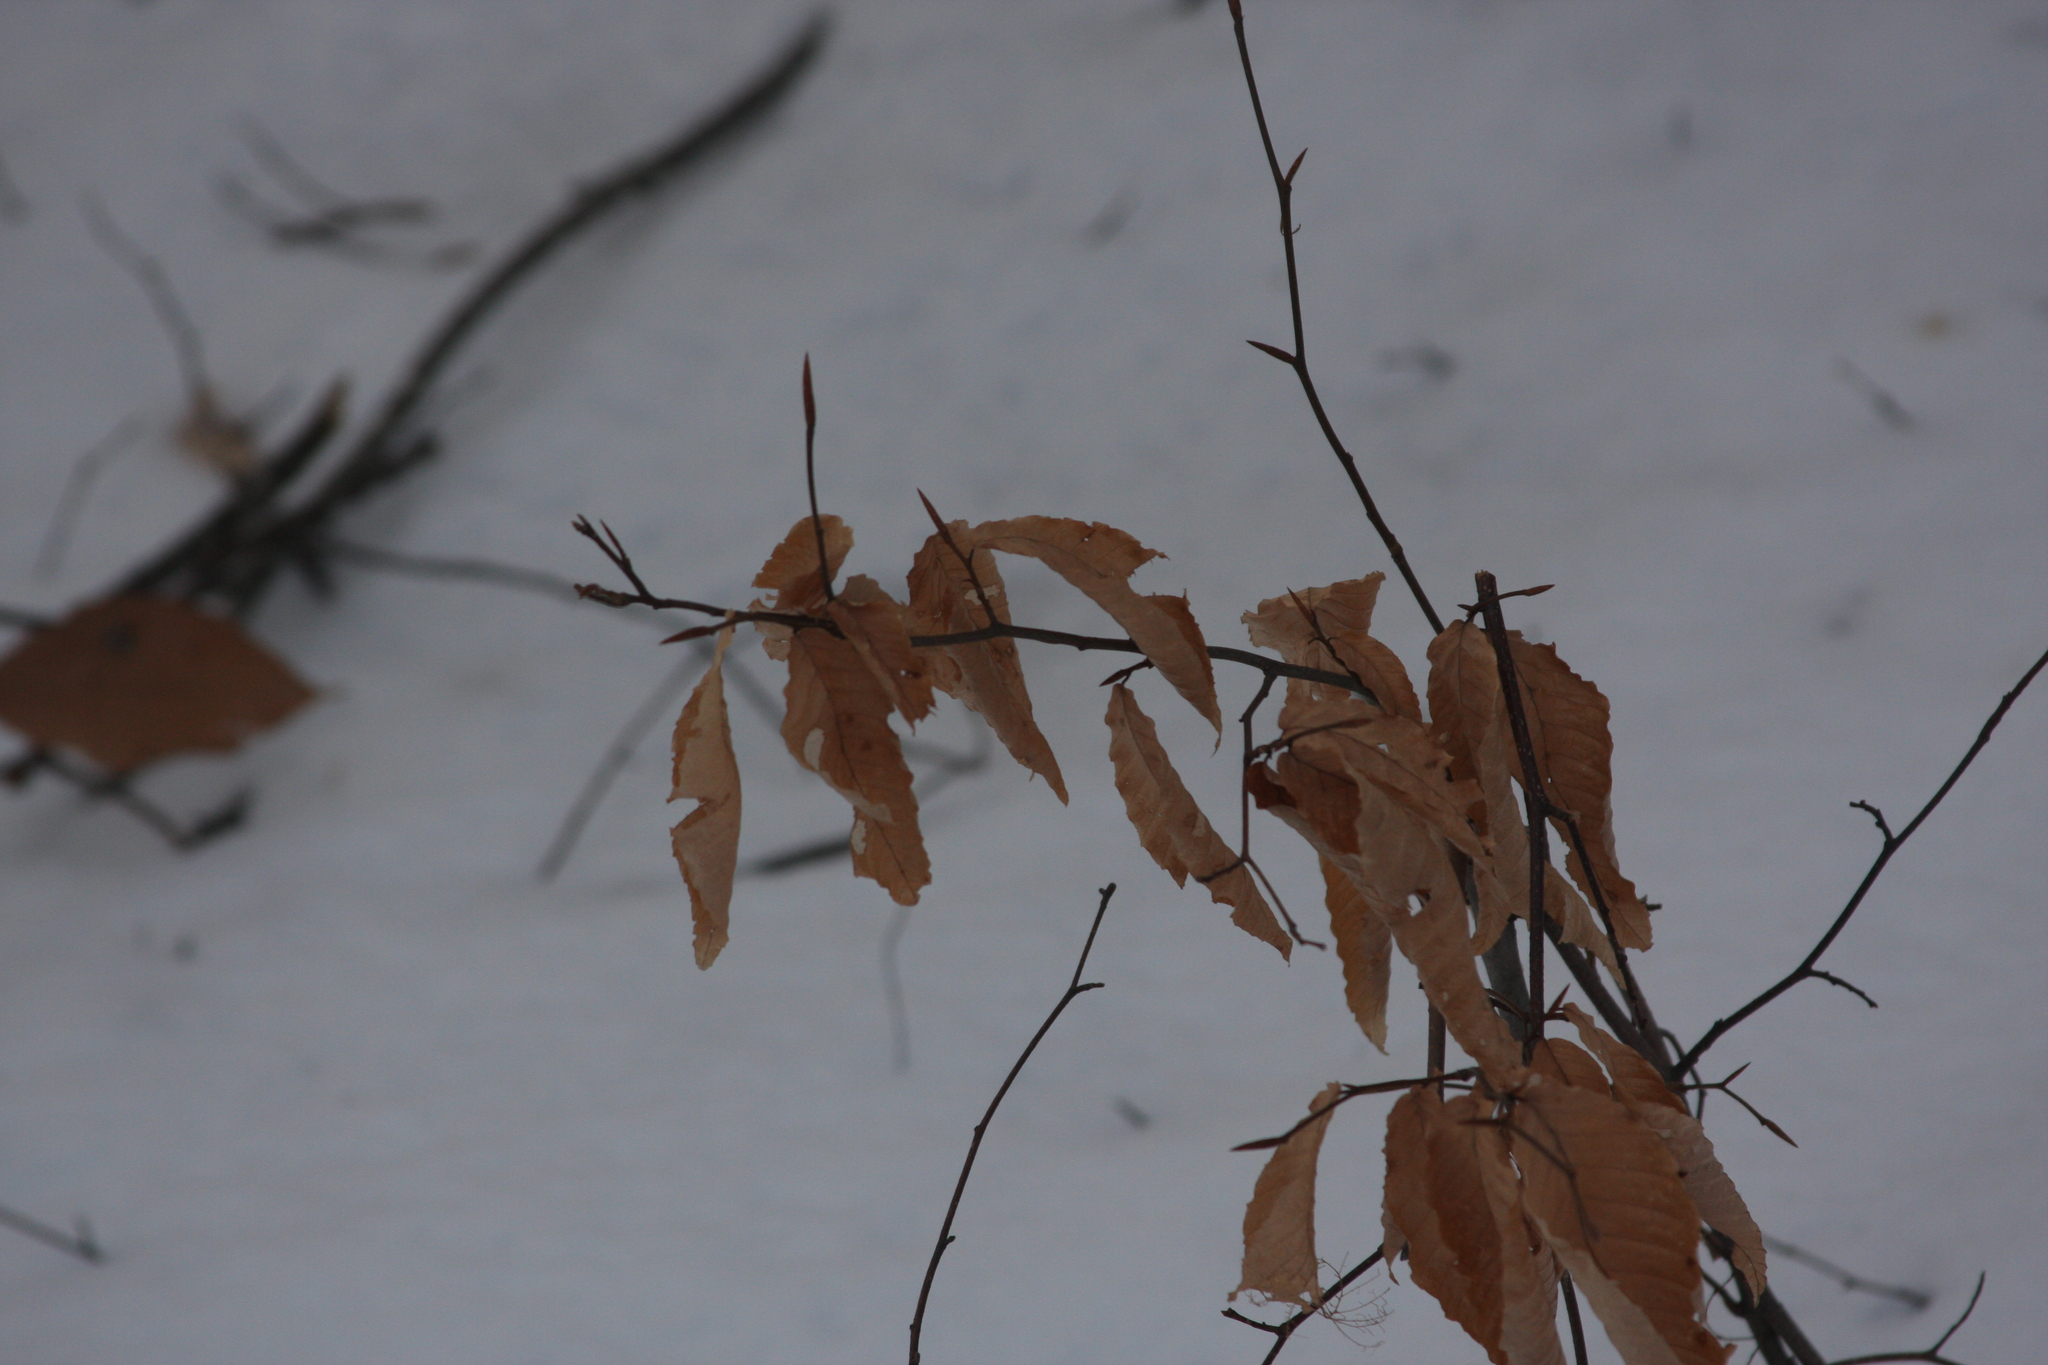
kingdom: Plantae
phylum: Tracheophyta
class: Magnoliopsida
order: Fagales
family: Fagaceae
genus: Fagus
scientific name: Fagus grandifolia
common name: American beech
